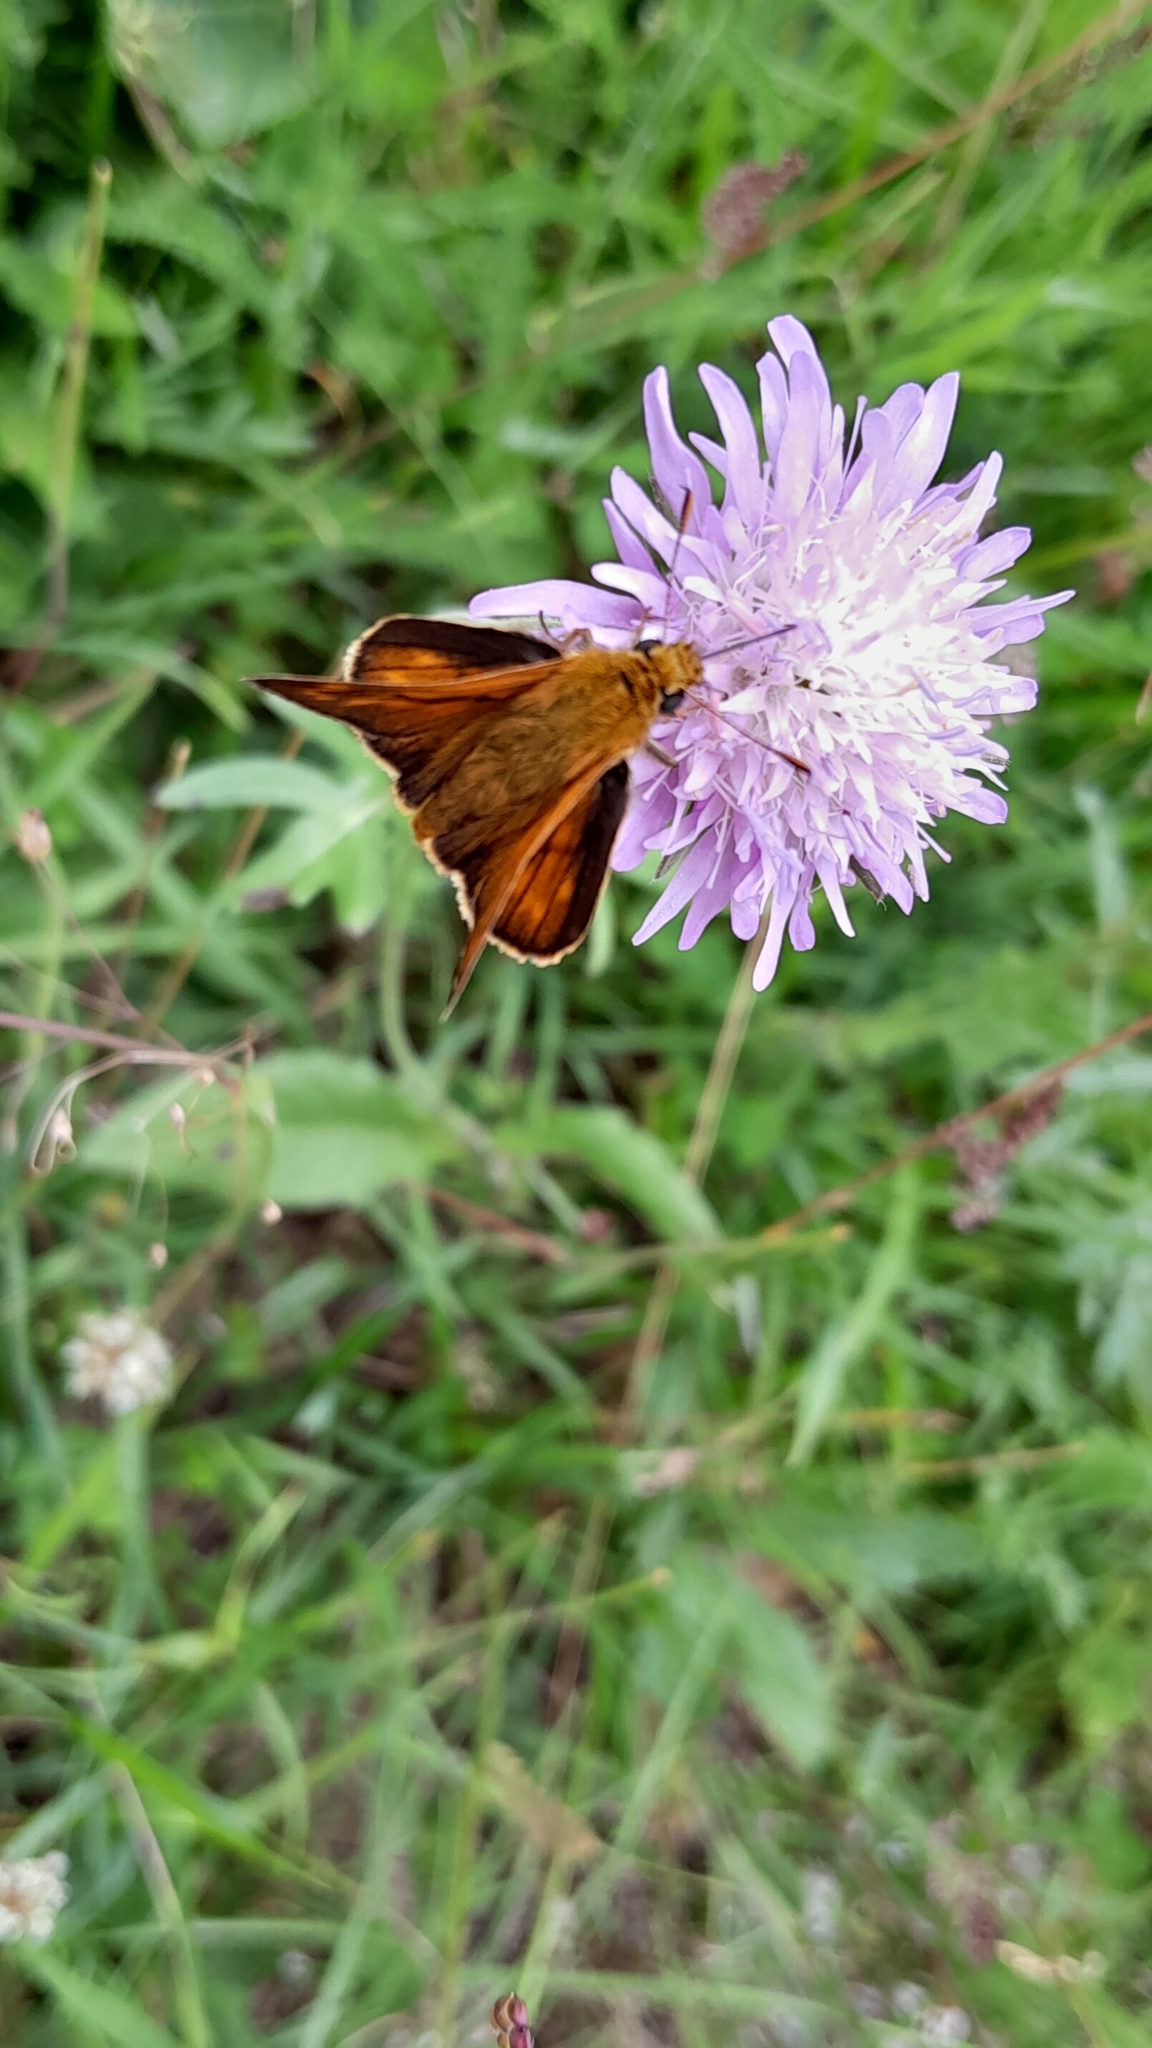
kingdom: Animalia
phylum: Arthropoda
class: Insecta
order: Lepidoptera
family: Hesperiidae
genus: Ochlodes
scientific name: Ochlodes venata
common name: Large skipper
